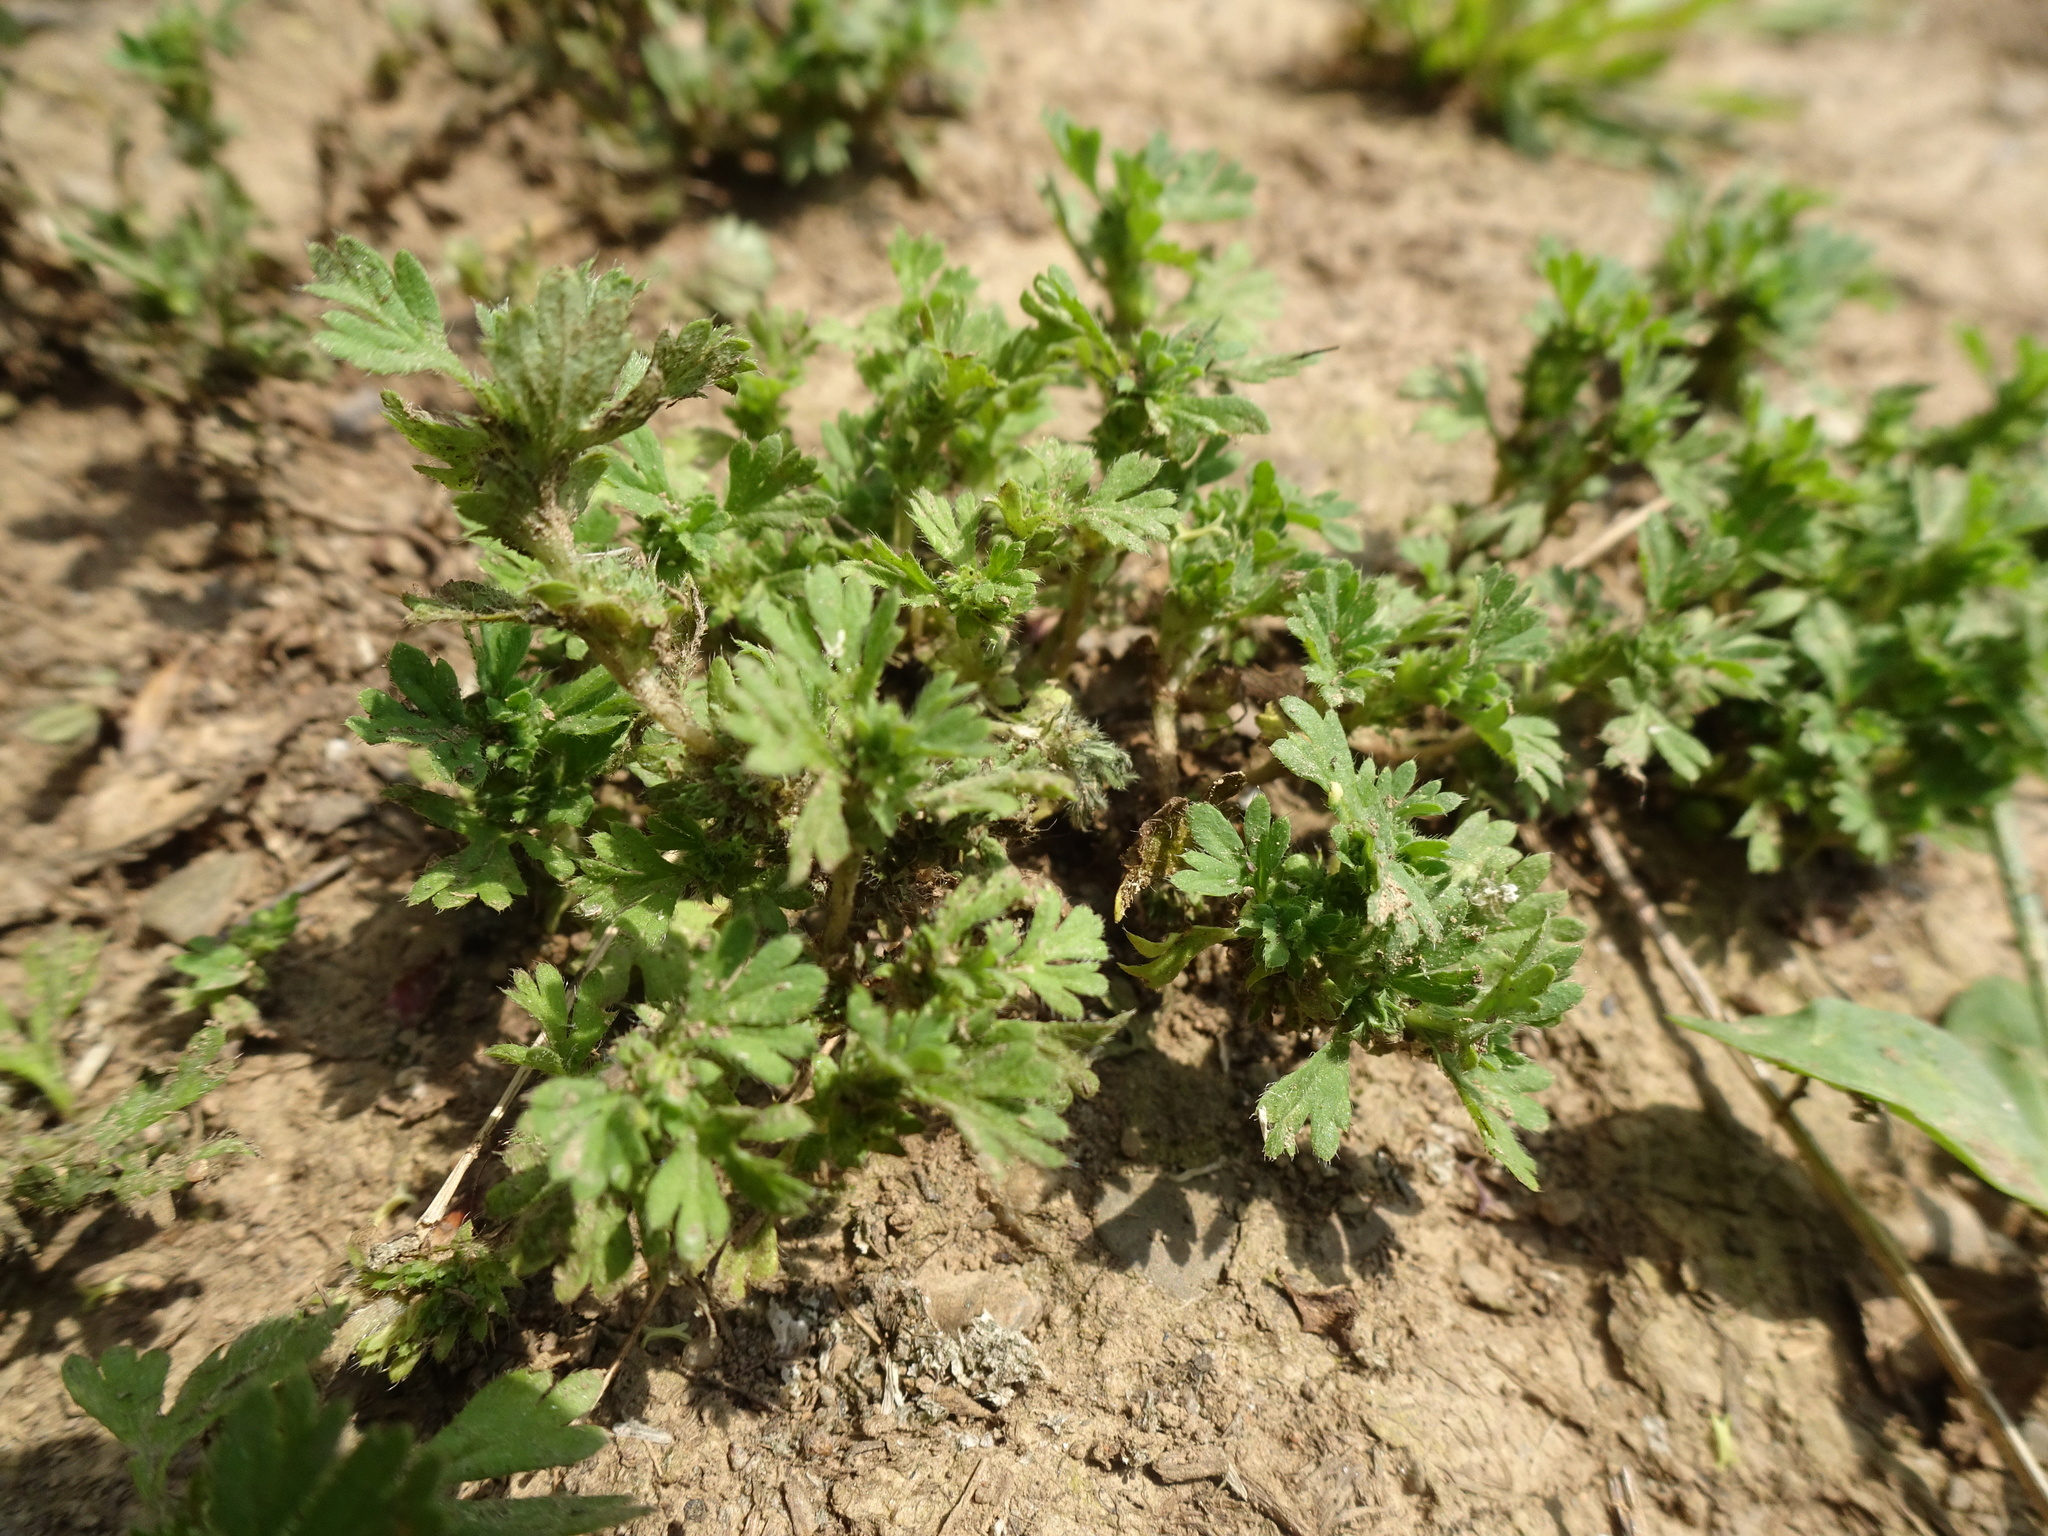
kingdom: Plantae
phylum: Tracheophyta
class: Magnoliopsida
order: Rosales
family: Rosaceae
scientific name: Rosaceae
